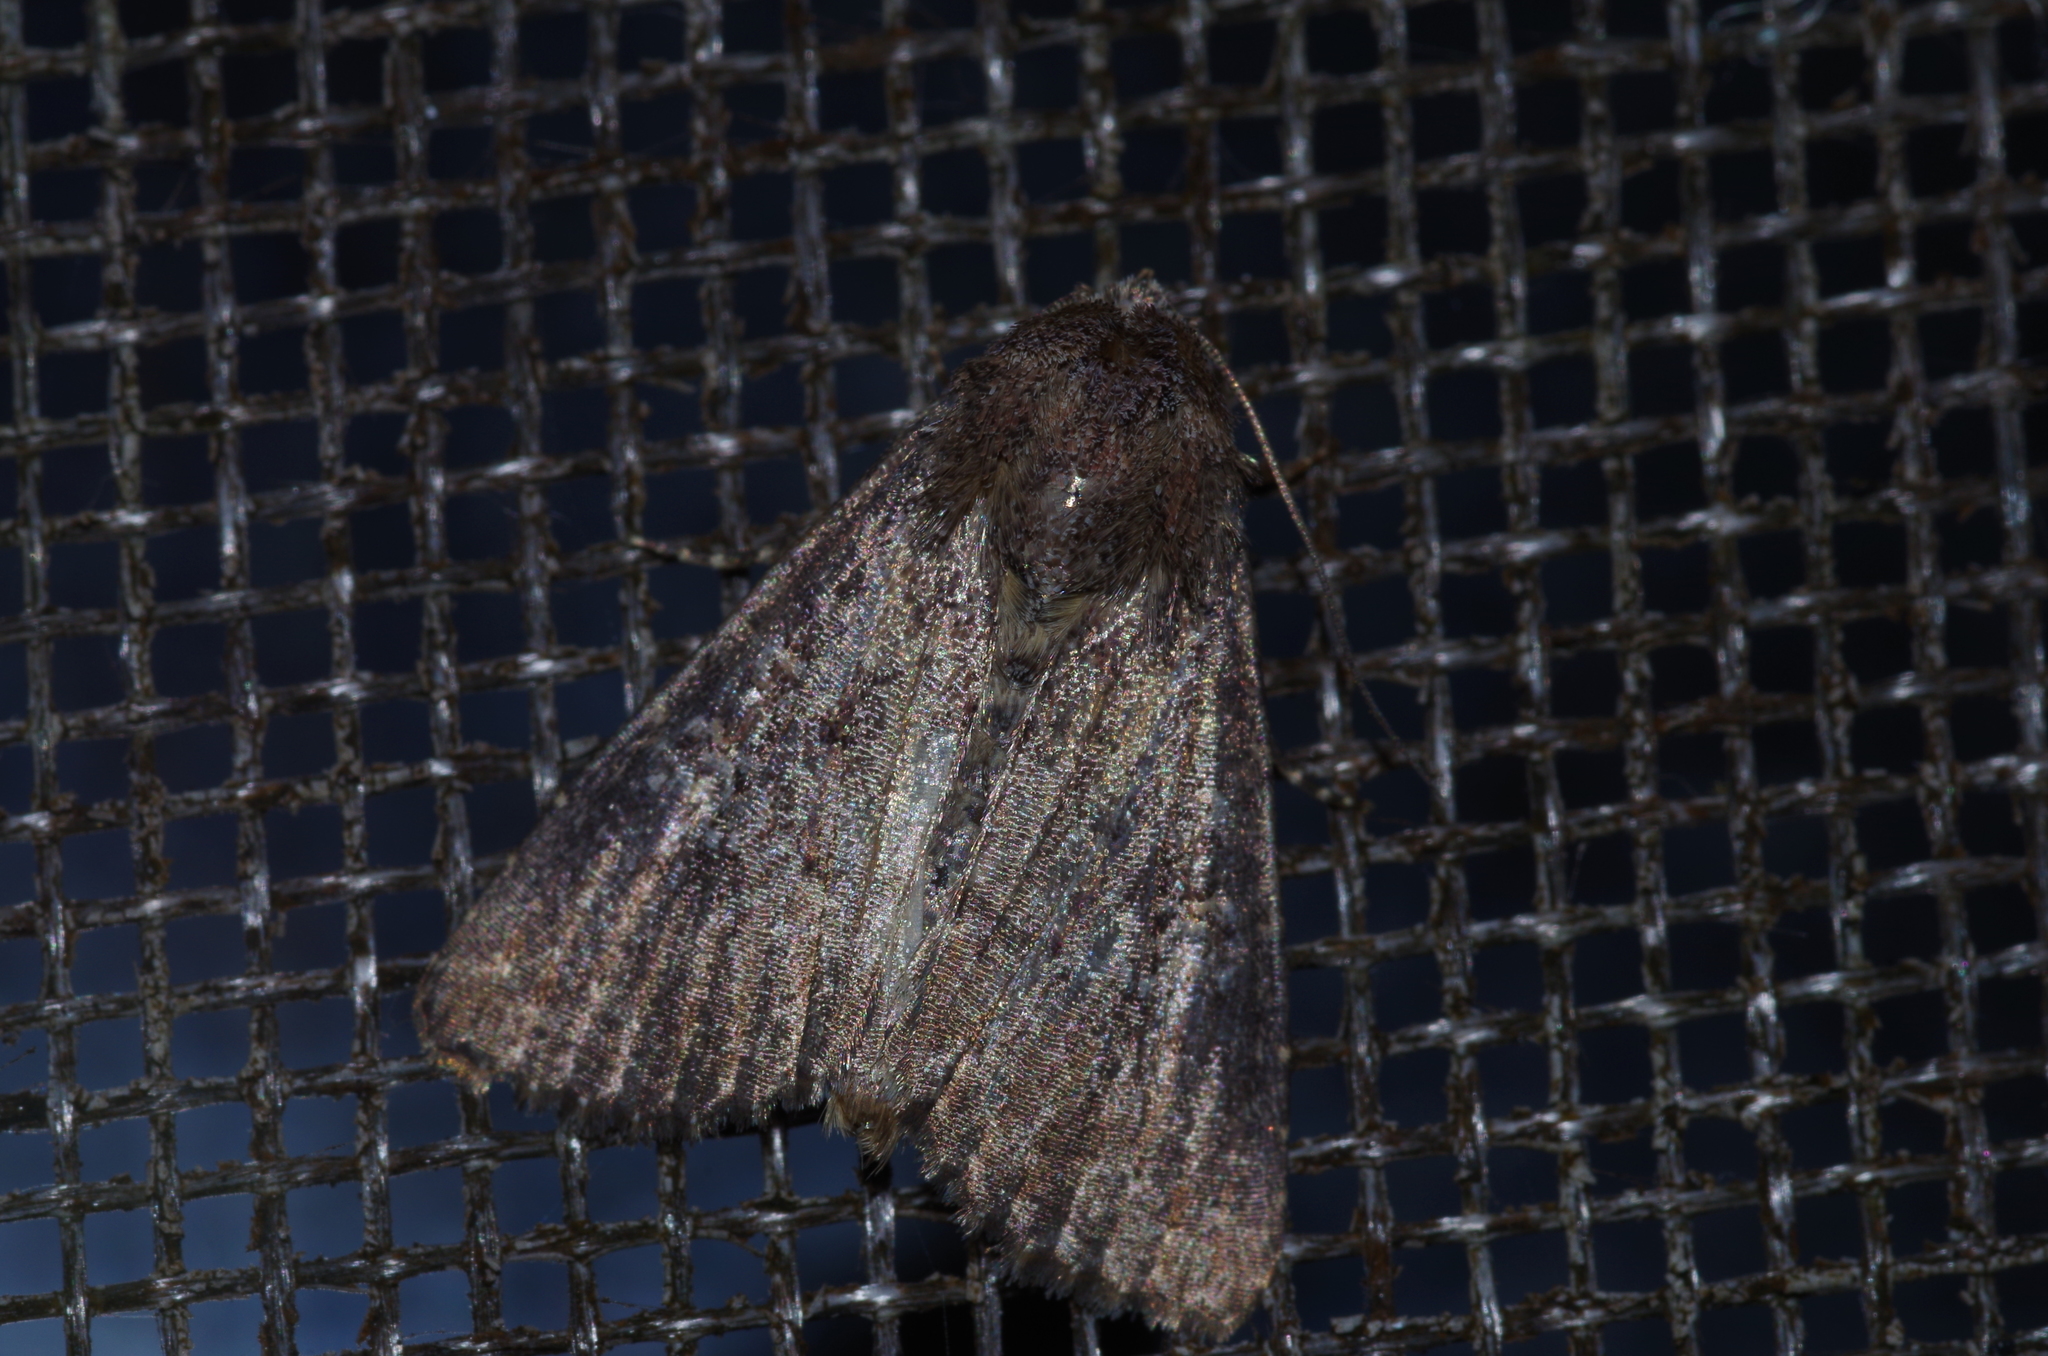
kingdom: Animalia
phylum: Arthropoda
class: Insecta
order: Lepidoptera
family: Noctuidae
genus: Condica
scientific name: Condica illecta
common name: Cutworm
